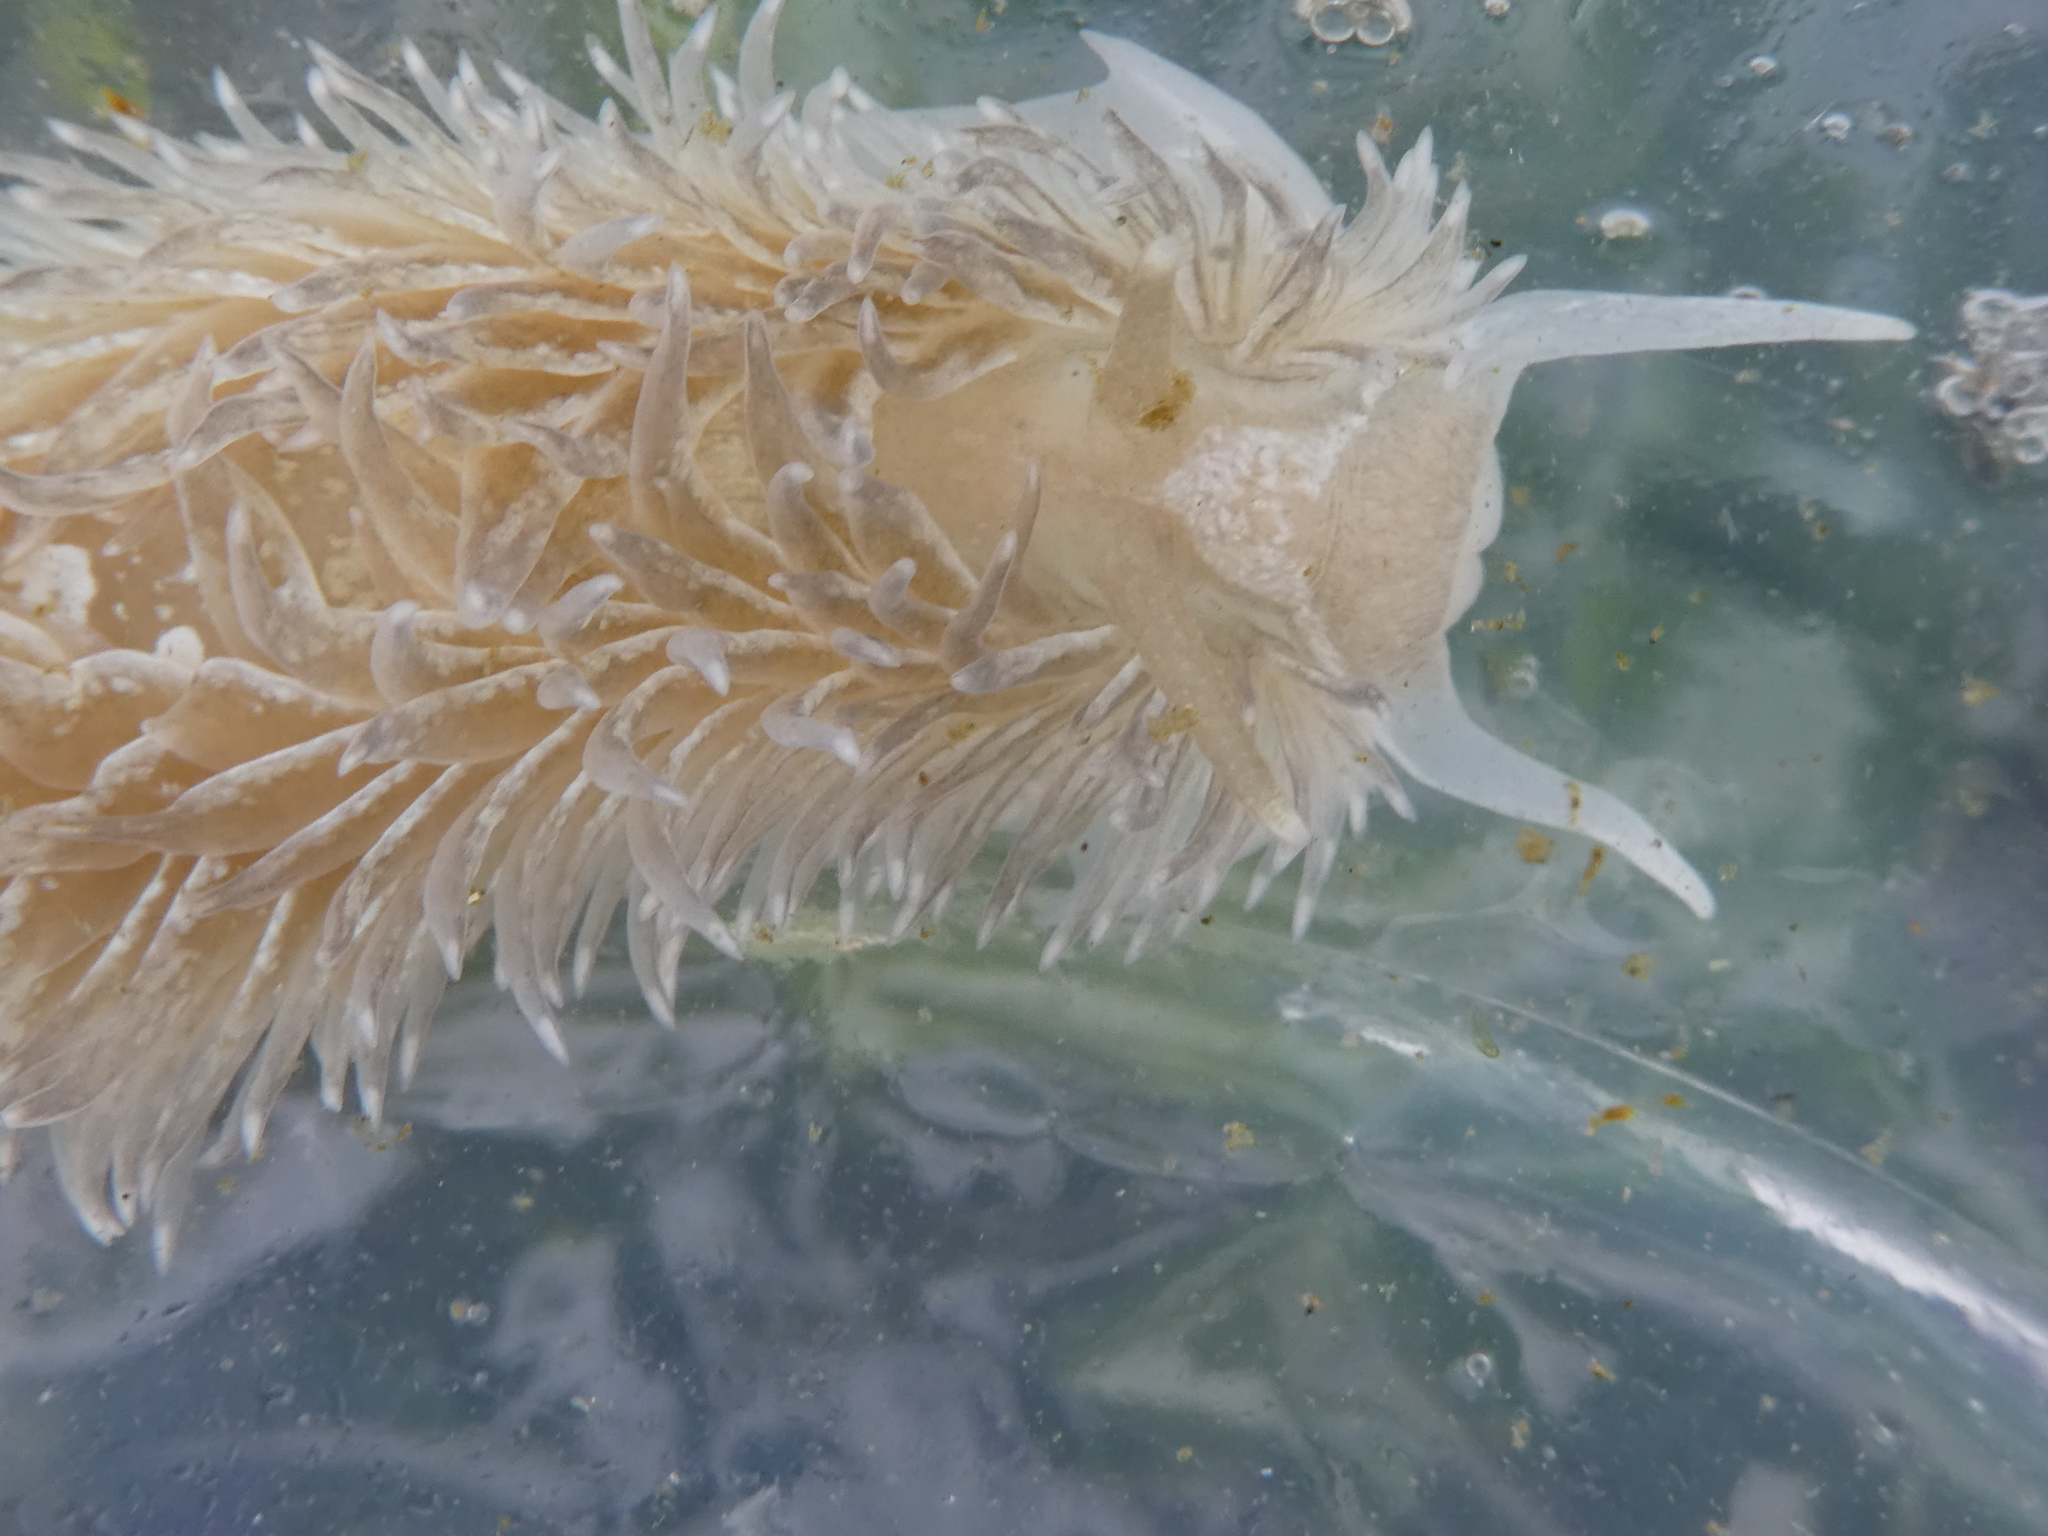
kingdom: Animalia
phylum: Mollusca
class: Gastropoda
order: Nudibranchia
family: Aeolidiidae
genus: Aeolidia
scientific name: Aeolidia loui
